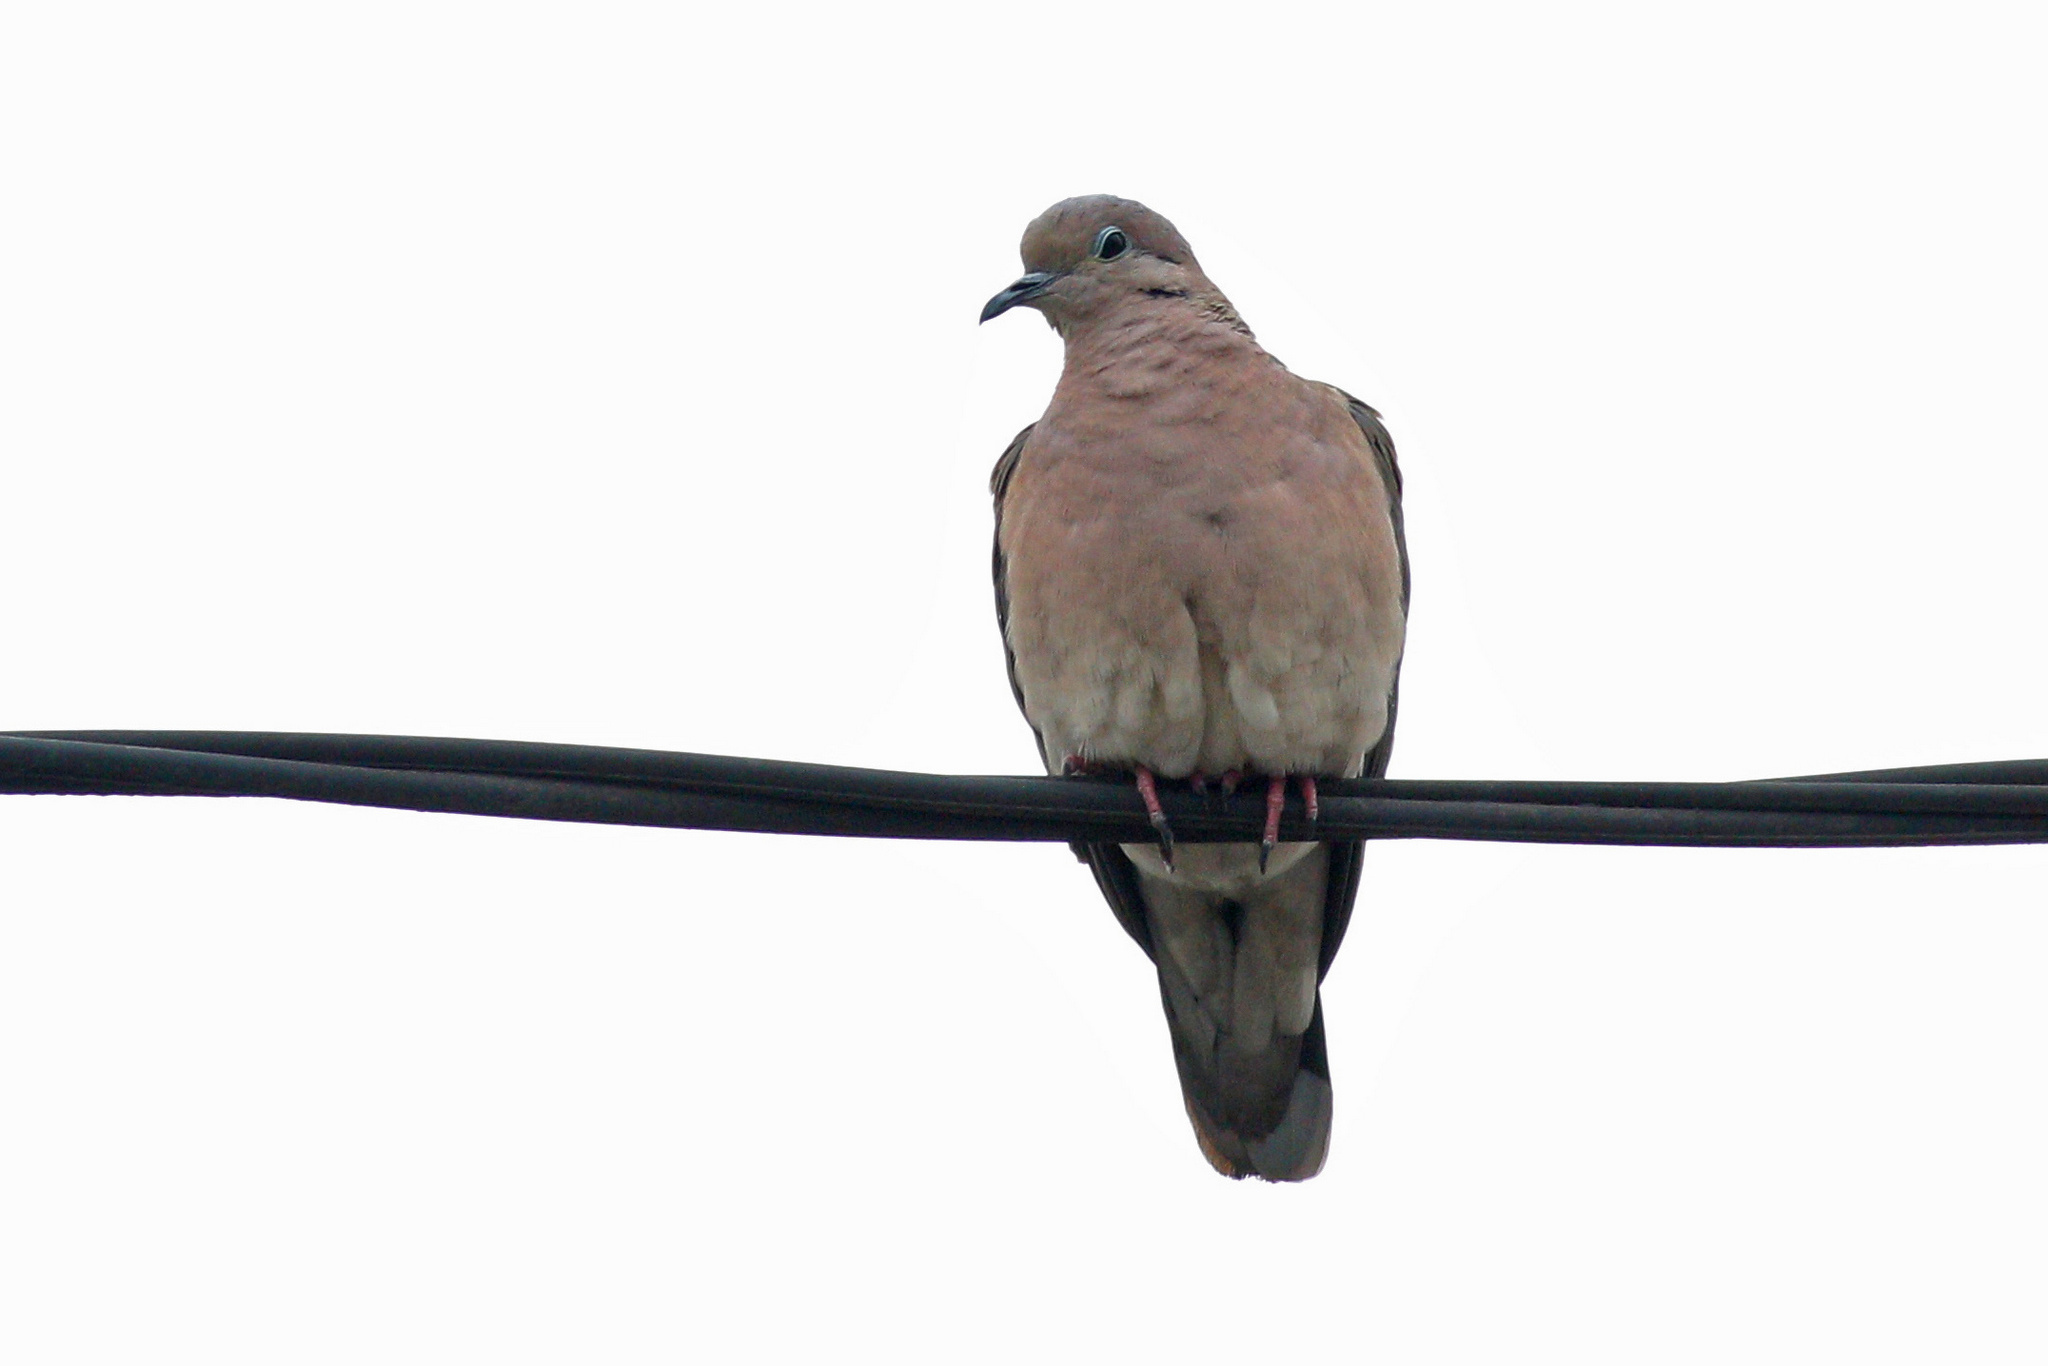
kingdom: Animalia
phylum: Chordata
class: Aves
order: Columbiformes
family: Columbidae
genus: Zenaida
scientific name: Zenaida auriculata
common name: Eared dove
